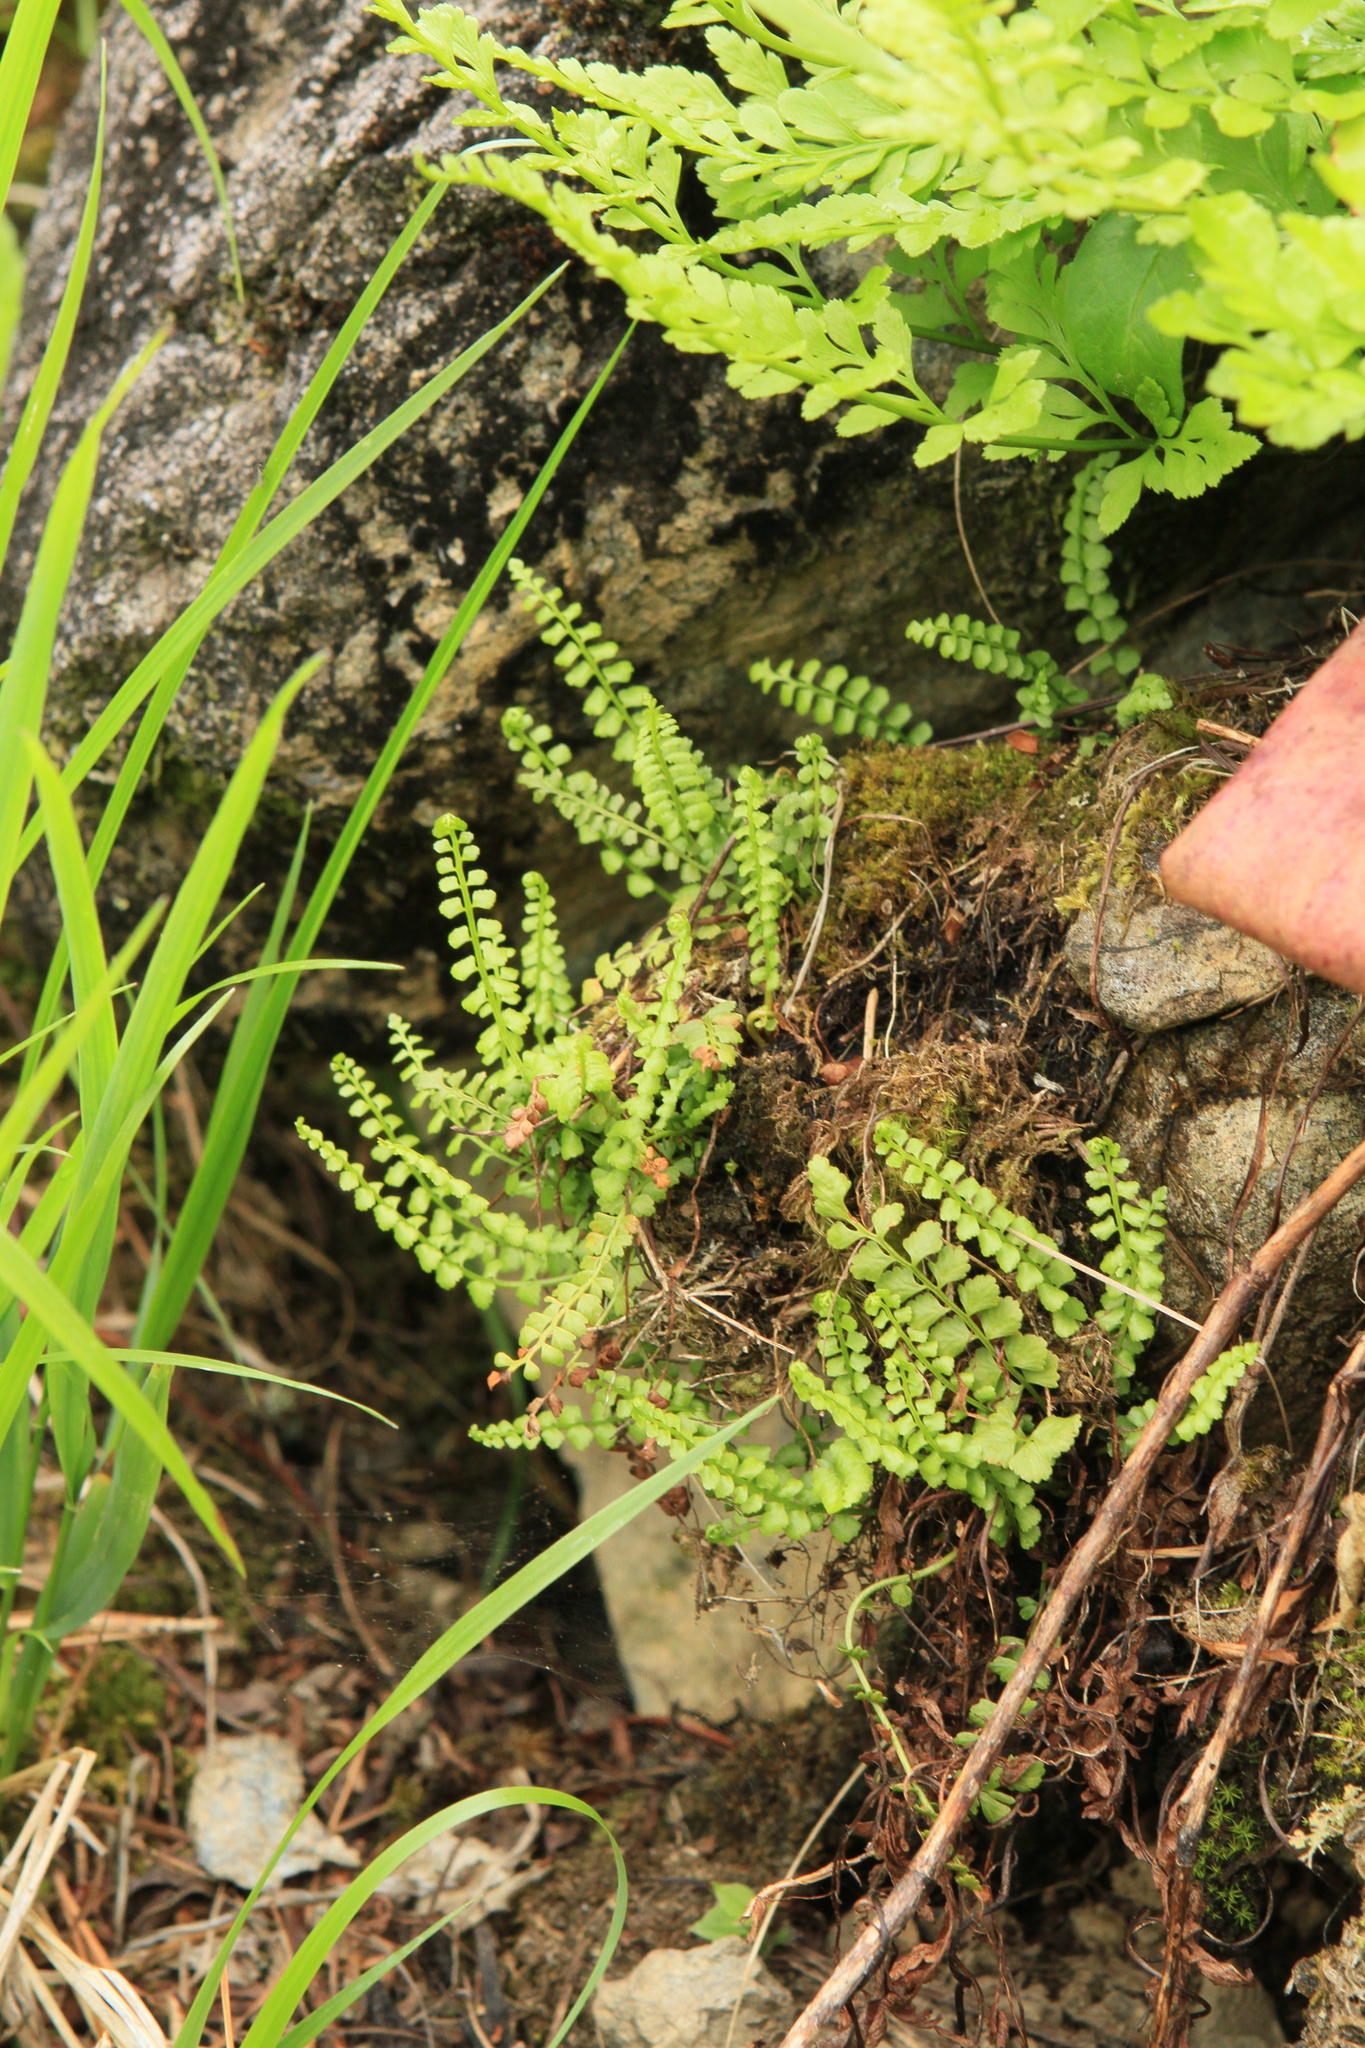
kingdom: Plantae
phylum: Tracheophyta
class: Polypodiopsida
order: Polypodiales
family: Aspleniaceae
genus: Asplenium
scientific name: Asplenium viride
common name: Green spleenwort
